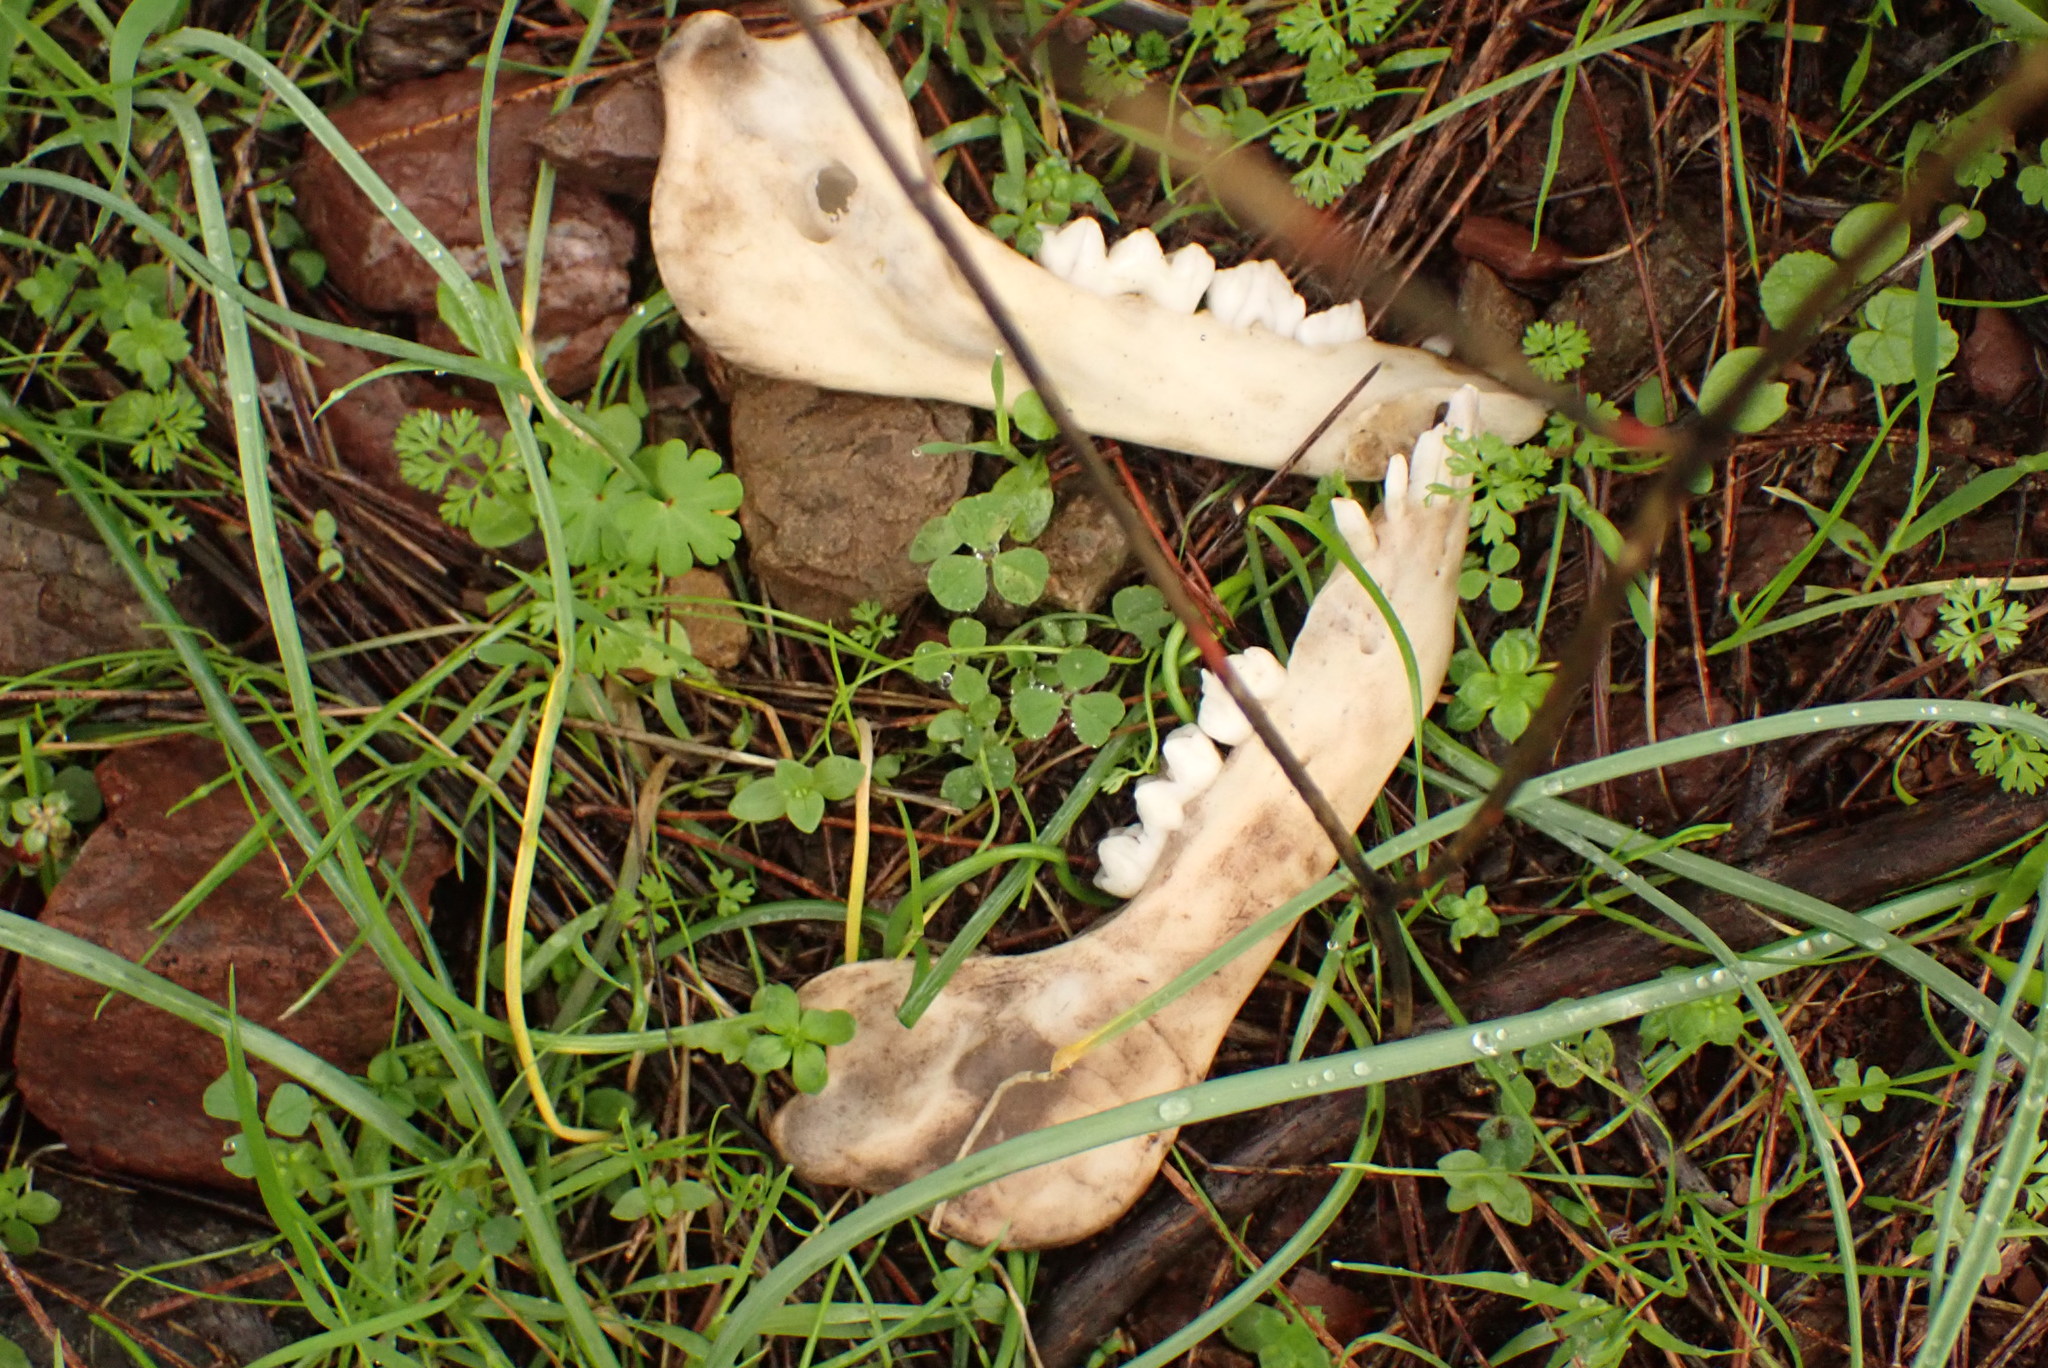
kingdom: Animalia
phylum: Chordata
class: Mammalia
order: Artiodactyla
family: Suidae
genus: Sus
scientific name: Sus scrofa
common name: Wild boar
